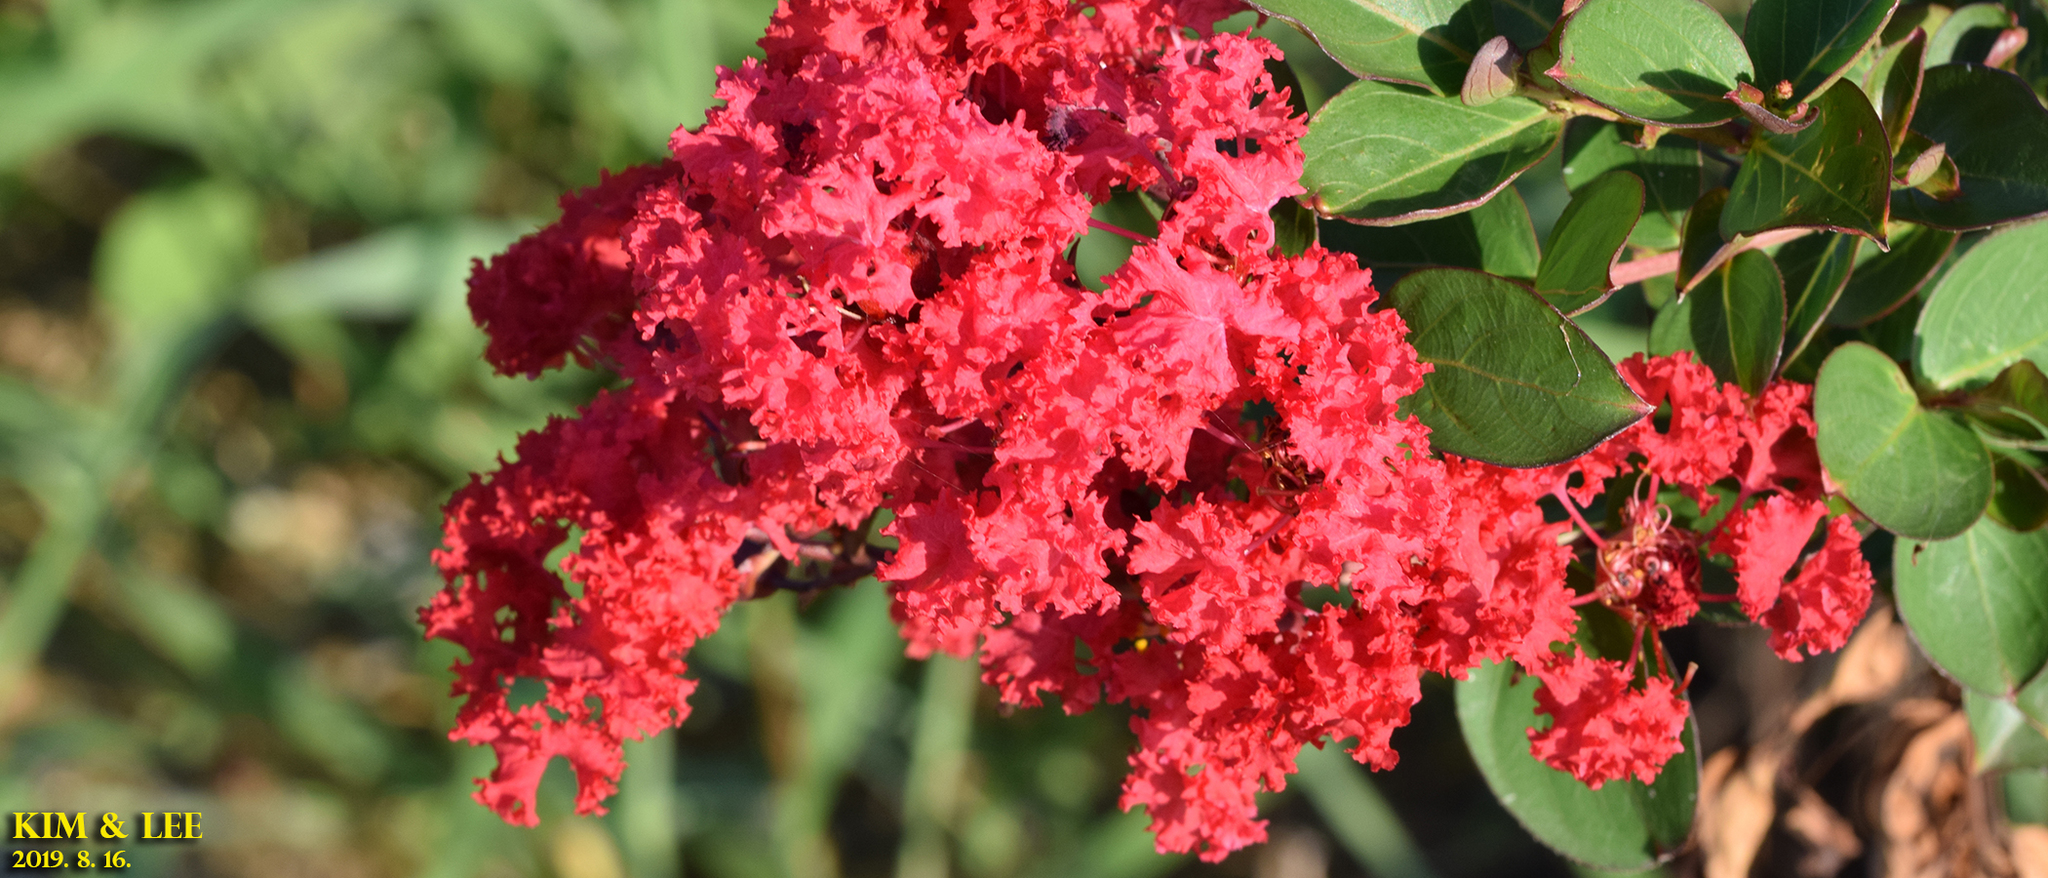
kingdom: Plantae
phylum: Tracheophyta
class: Magnoliopsida
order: Myrtales
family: Lythraceae
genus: Lagerstroemia
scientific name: Lagerstroemia indica
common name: Crape-myrtle
